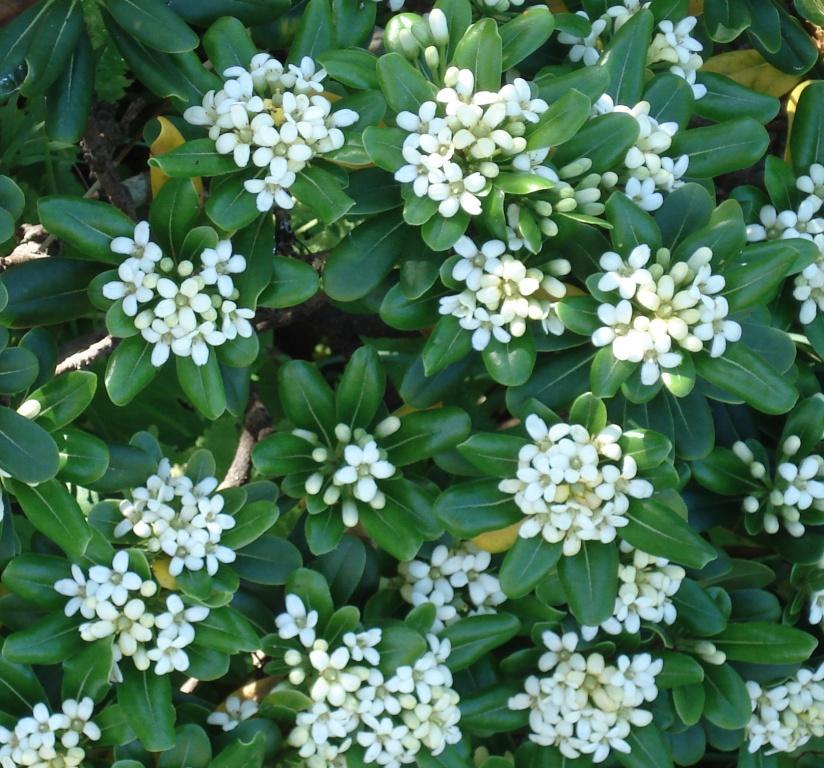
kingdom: Plantae
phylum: Tracheophyta
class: Magnoliopsida
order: Apiales
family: Pittosporaceae
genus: Pittosporum
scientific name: Pittosporum tobira
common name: Japanese cheesewood
